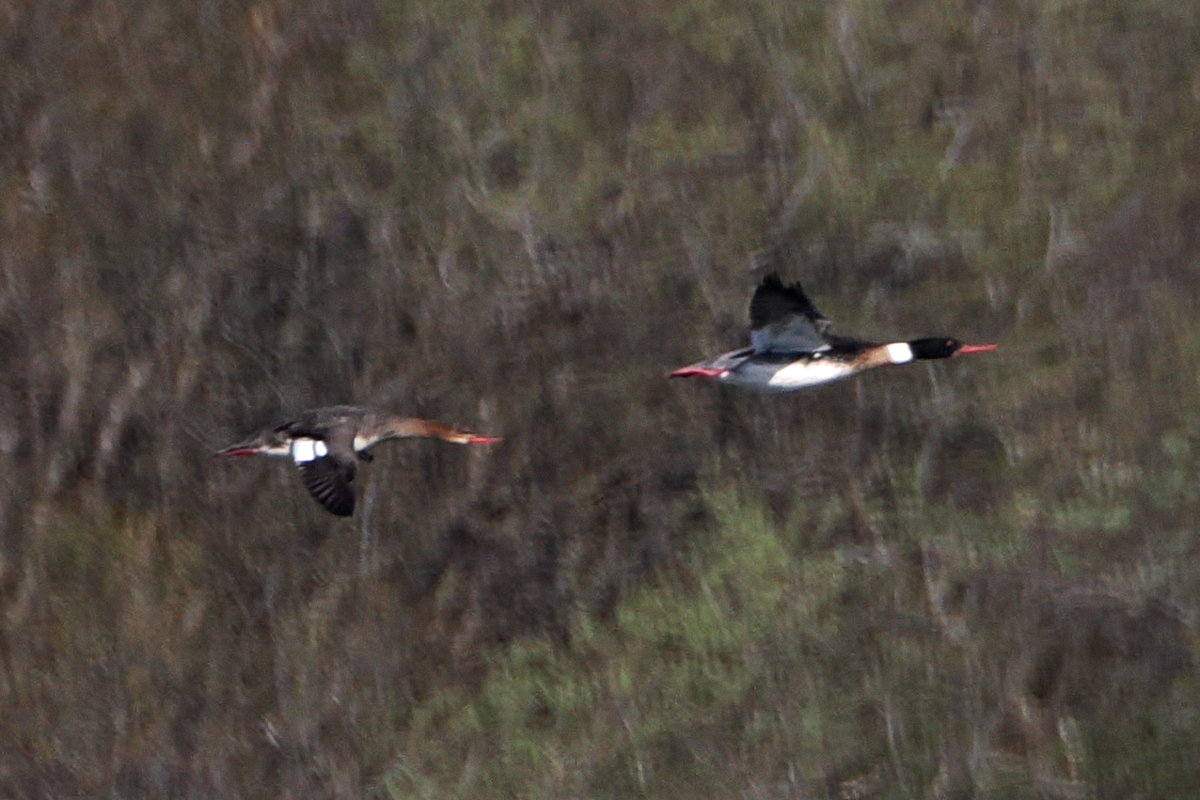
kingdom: Animalia
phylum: Chordata
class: Aves
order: Anseriformes
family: Anatidae
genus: Mergus
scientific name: Mergus serrator
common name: Red-breasted merganser
